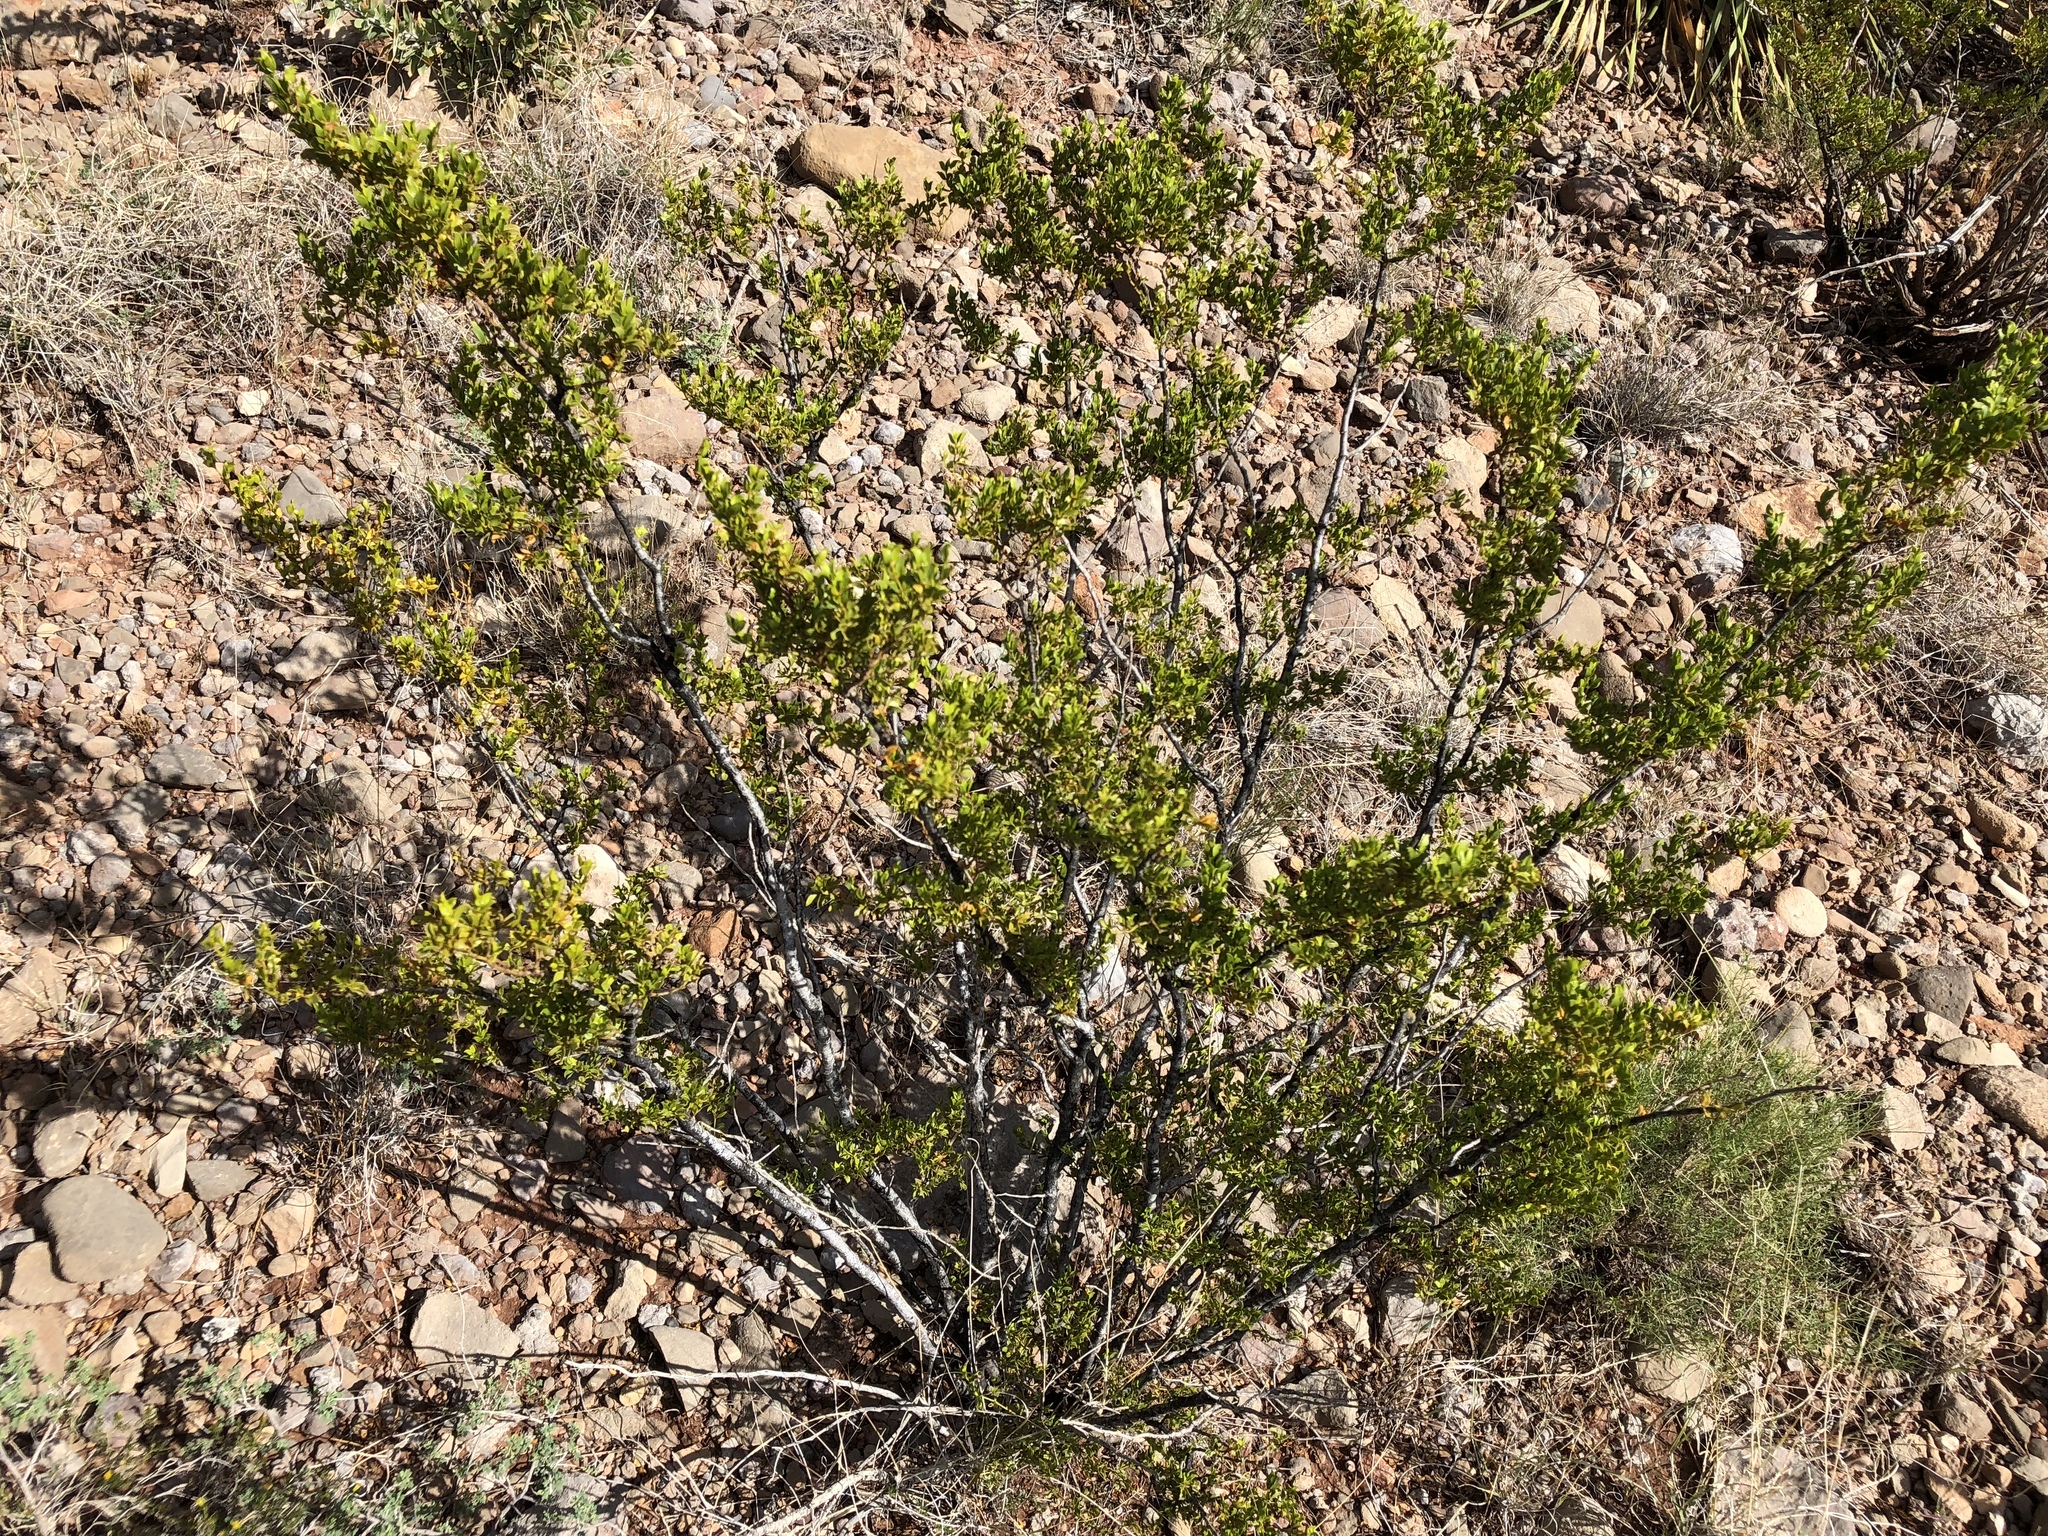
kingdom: Plantae
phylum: Tracheophyta
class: Magnoliopsida
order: Zygophyllales
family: Zygophyllaceae
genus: Larrea
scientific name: Larrea tridentata
